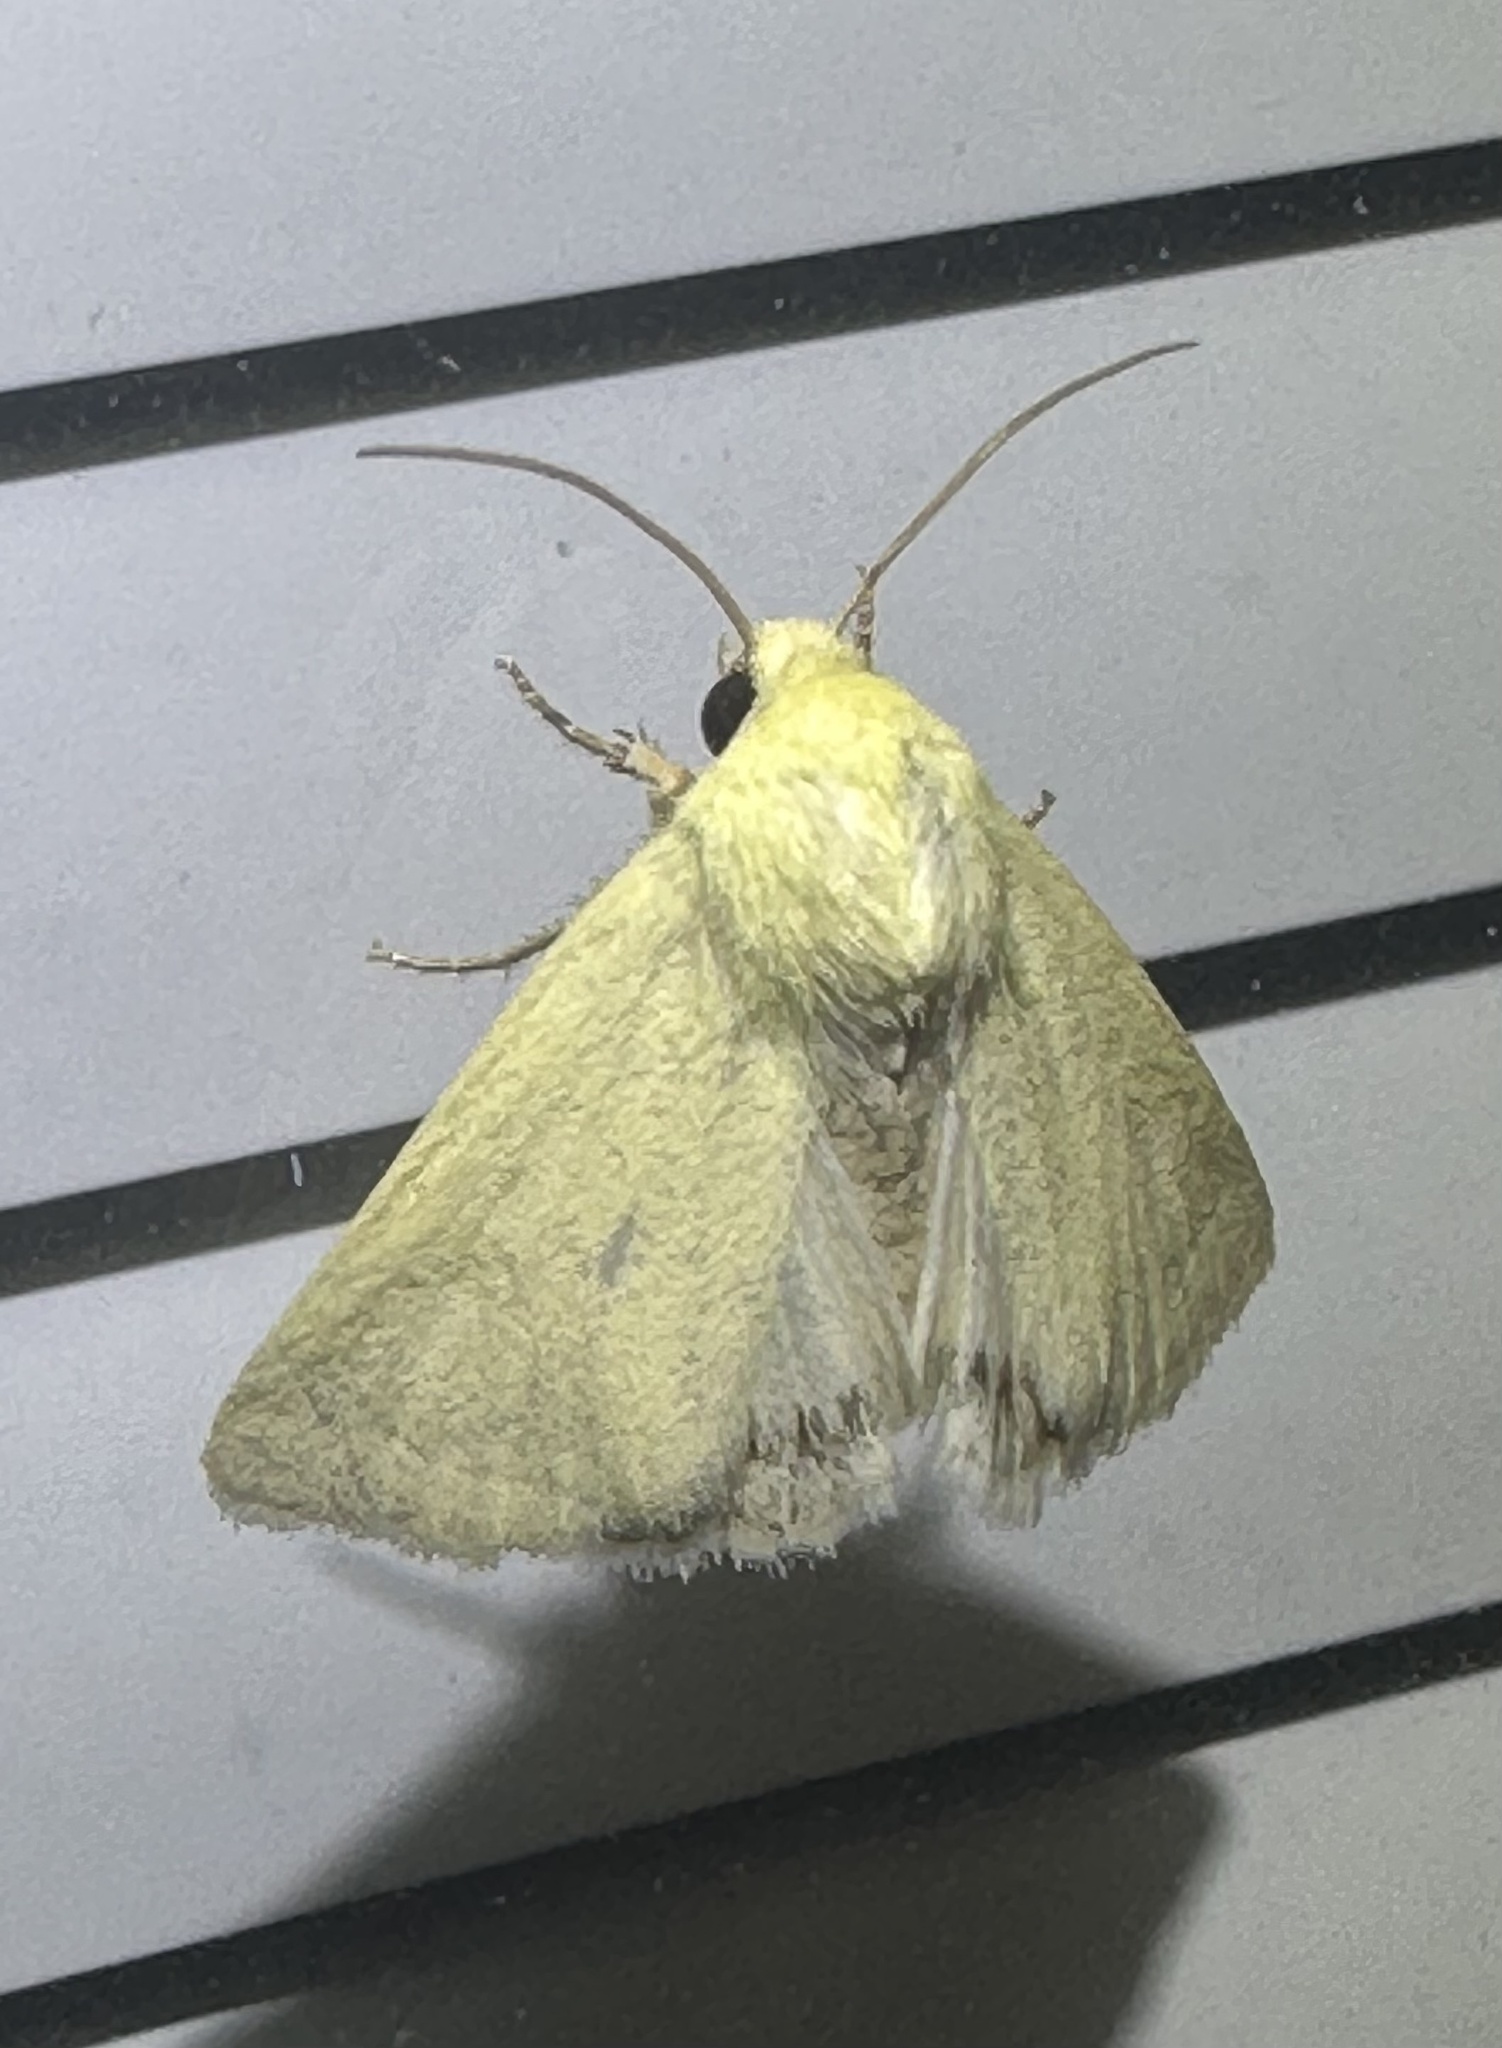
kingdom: Animalia
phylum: Arthropoda
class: Insecta
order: Lepidoptera
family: Noctuidae
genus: Schinia
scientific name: Schinia citrinellus
